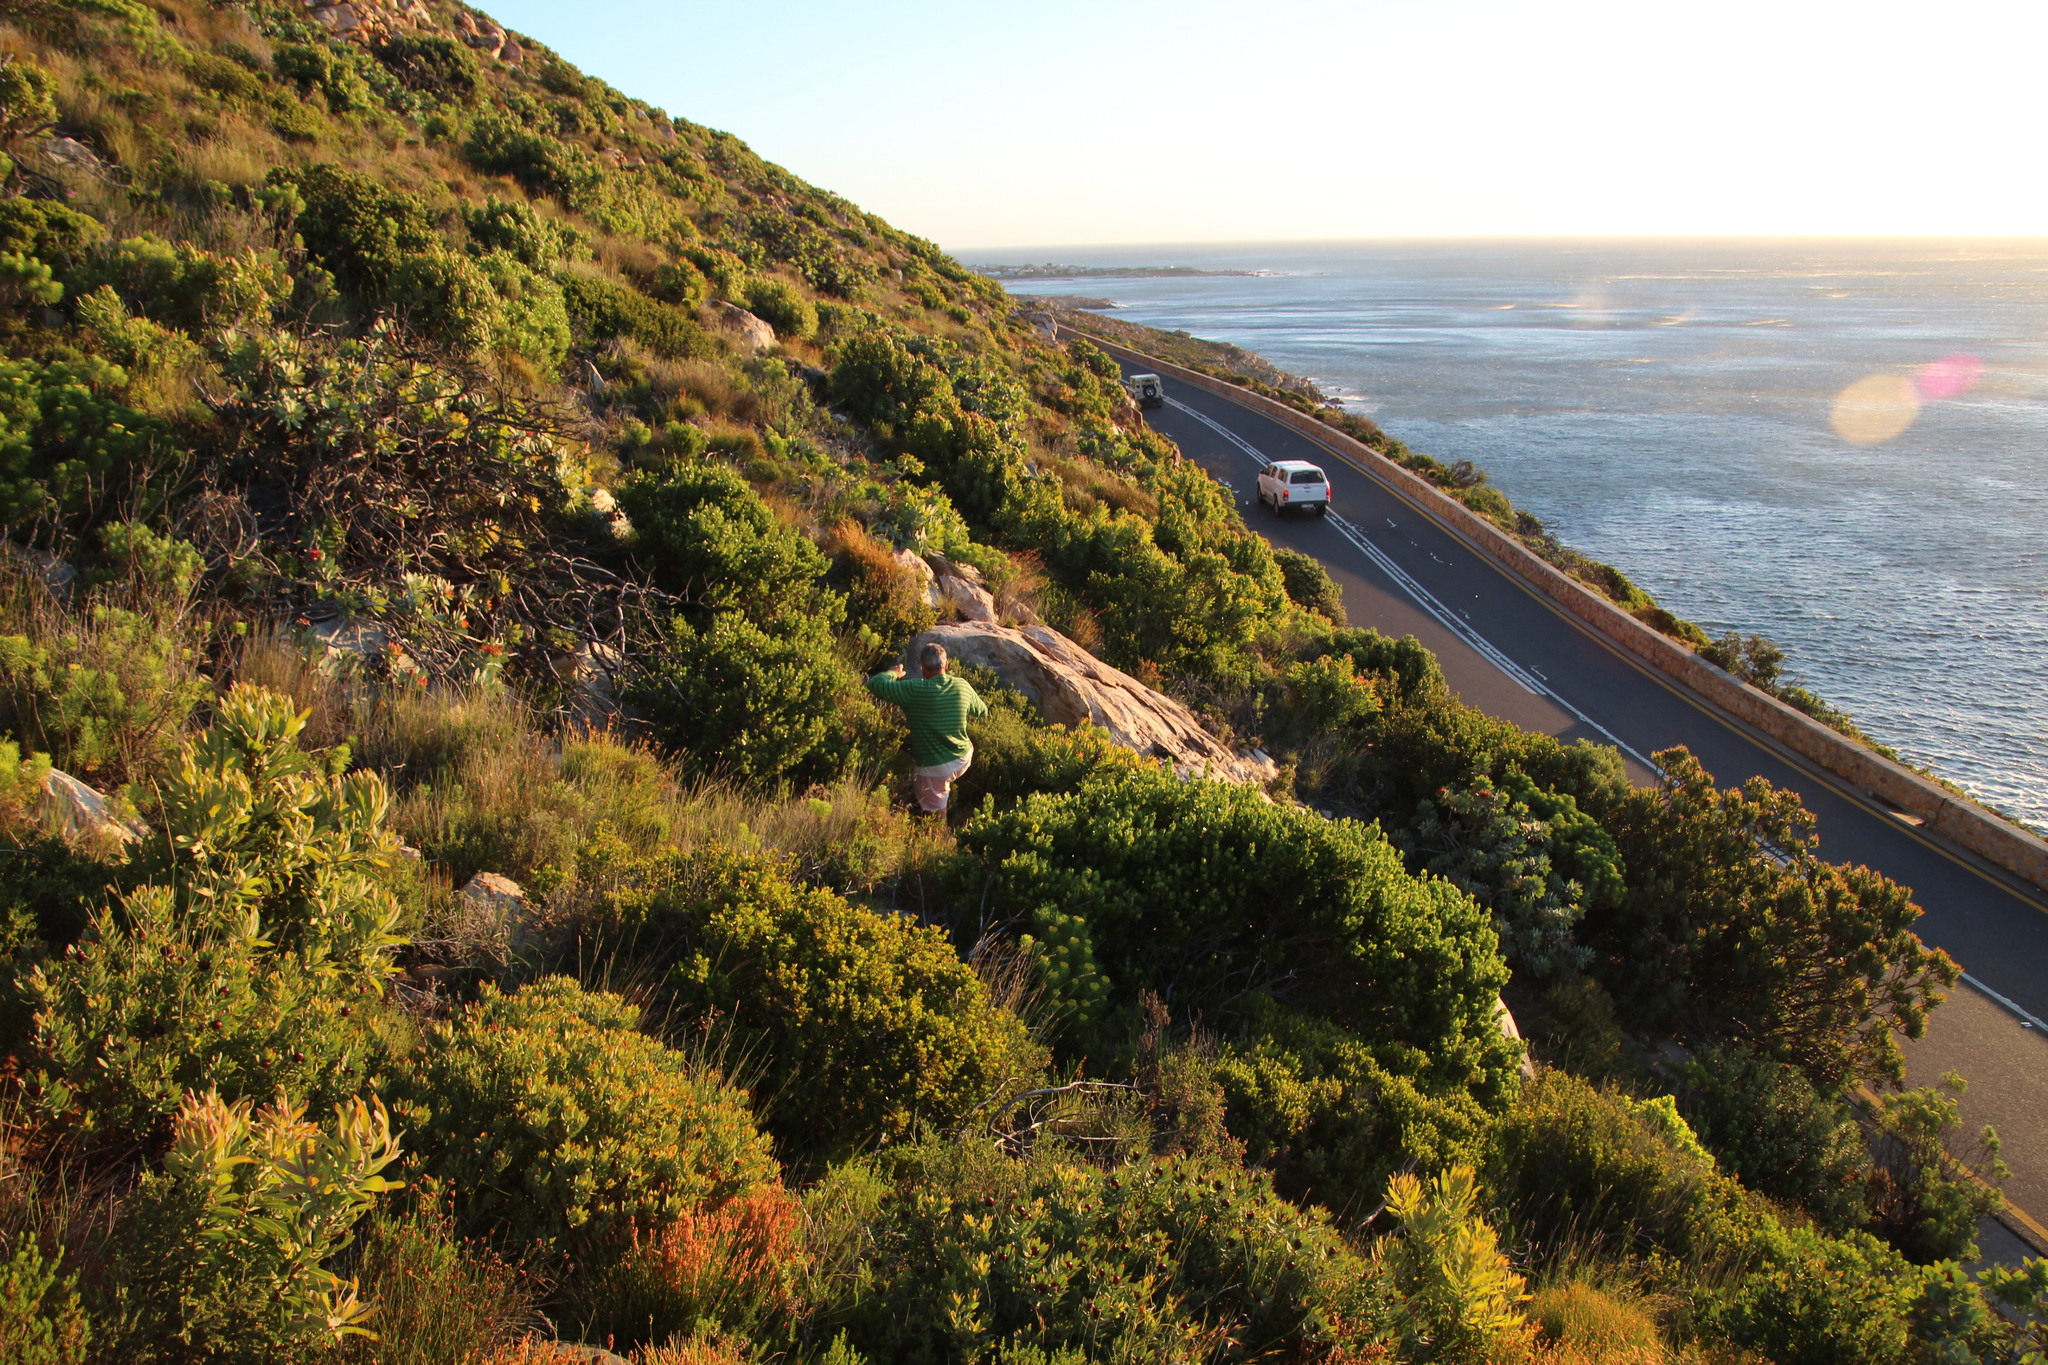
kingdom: Plantae
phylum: Tracheophyta
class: Magnoliopsida
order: Proteales
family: Proteaceae
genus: Leucadendron
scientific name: Leucadendron sessile
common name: Western sunbush
